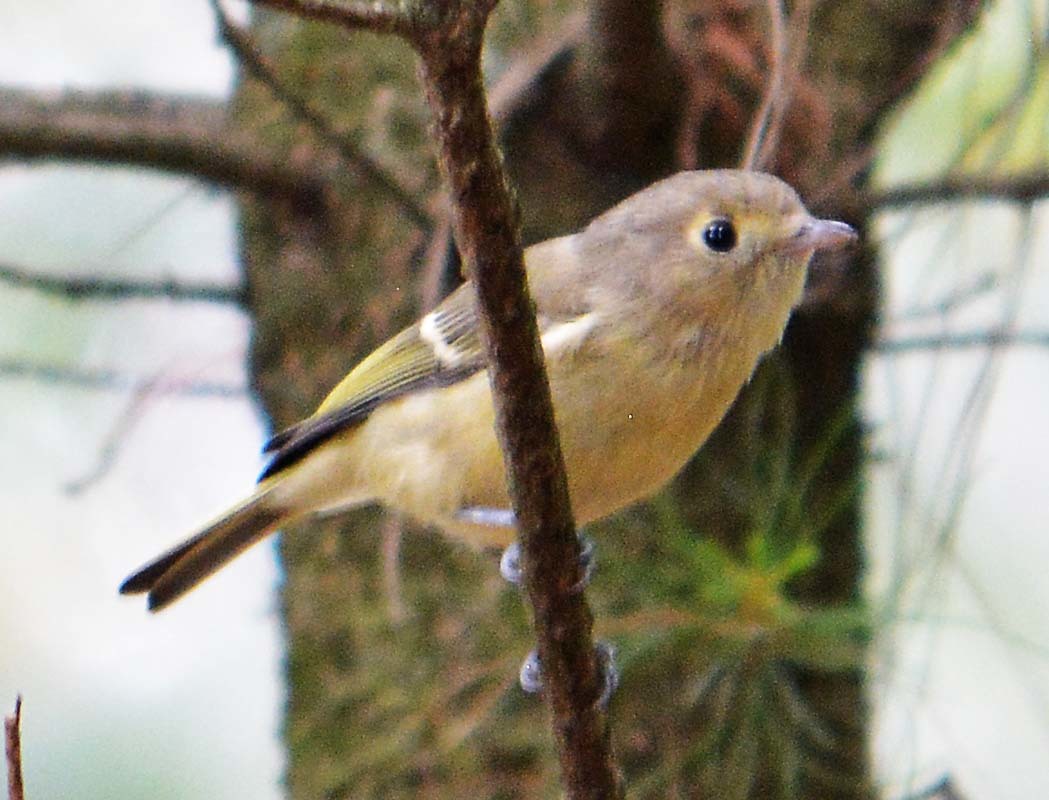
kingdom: Animalia
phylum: Chordata
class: Aves
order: Passeriformes
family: Vireonidae
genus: Vireo
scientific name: Vireo huttoni
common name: Hutton's vireo
